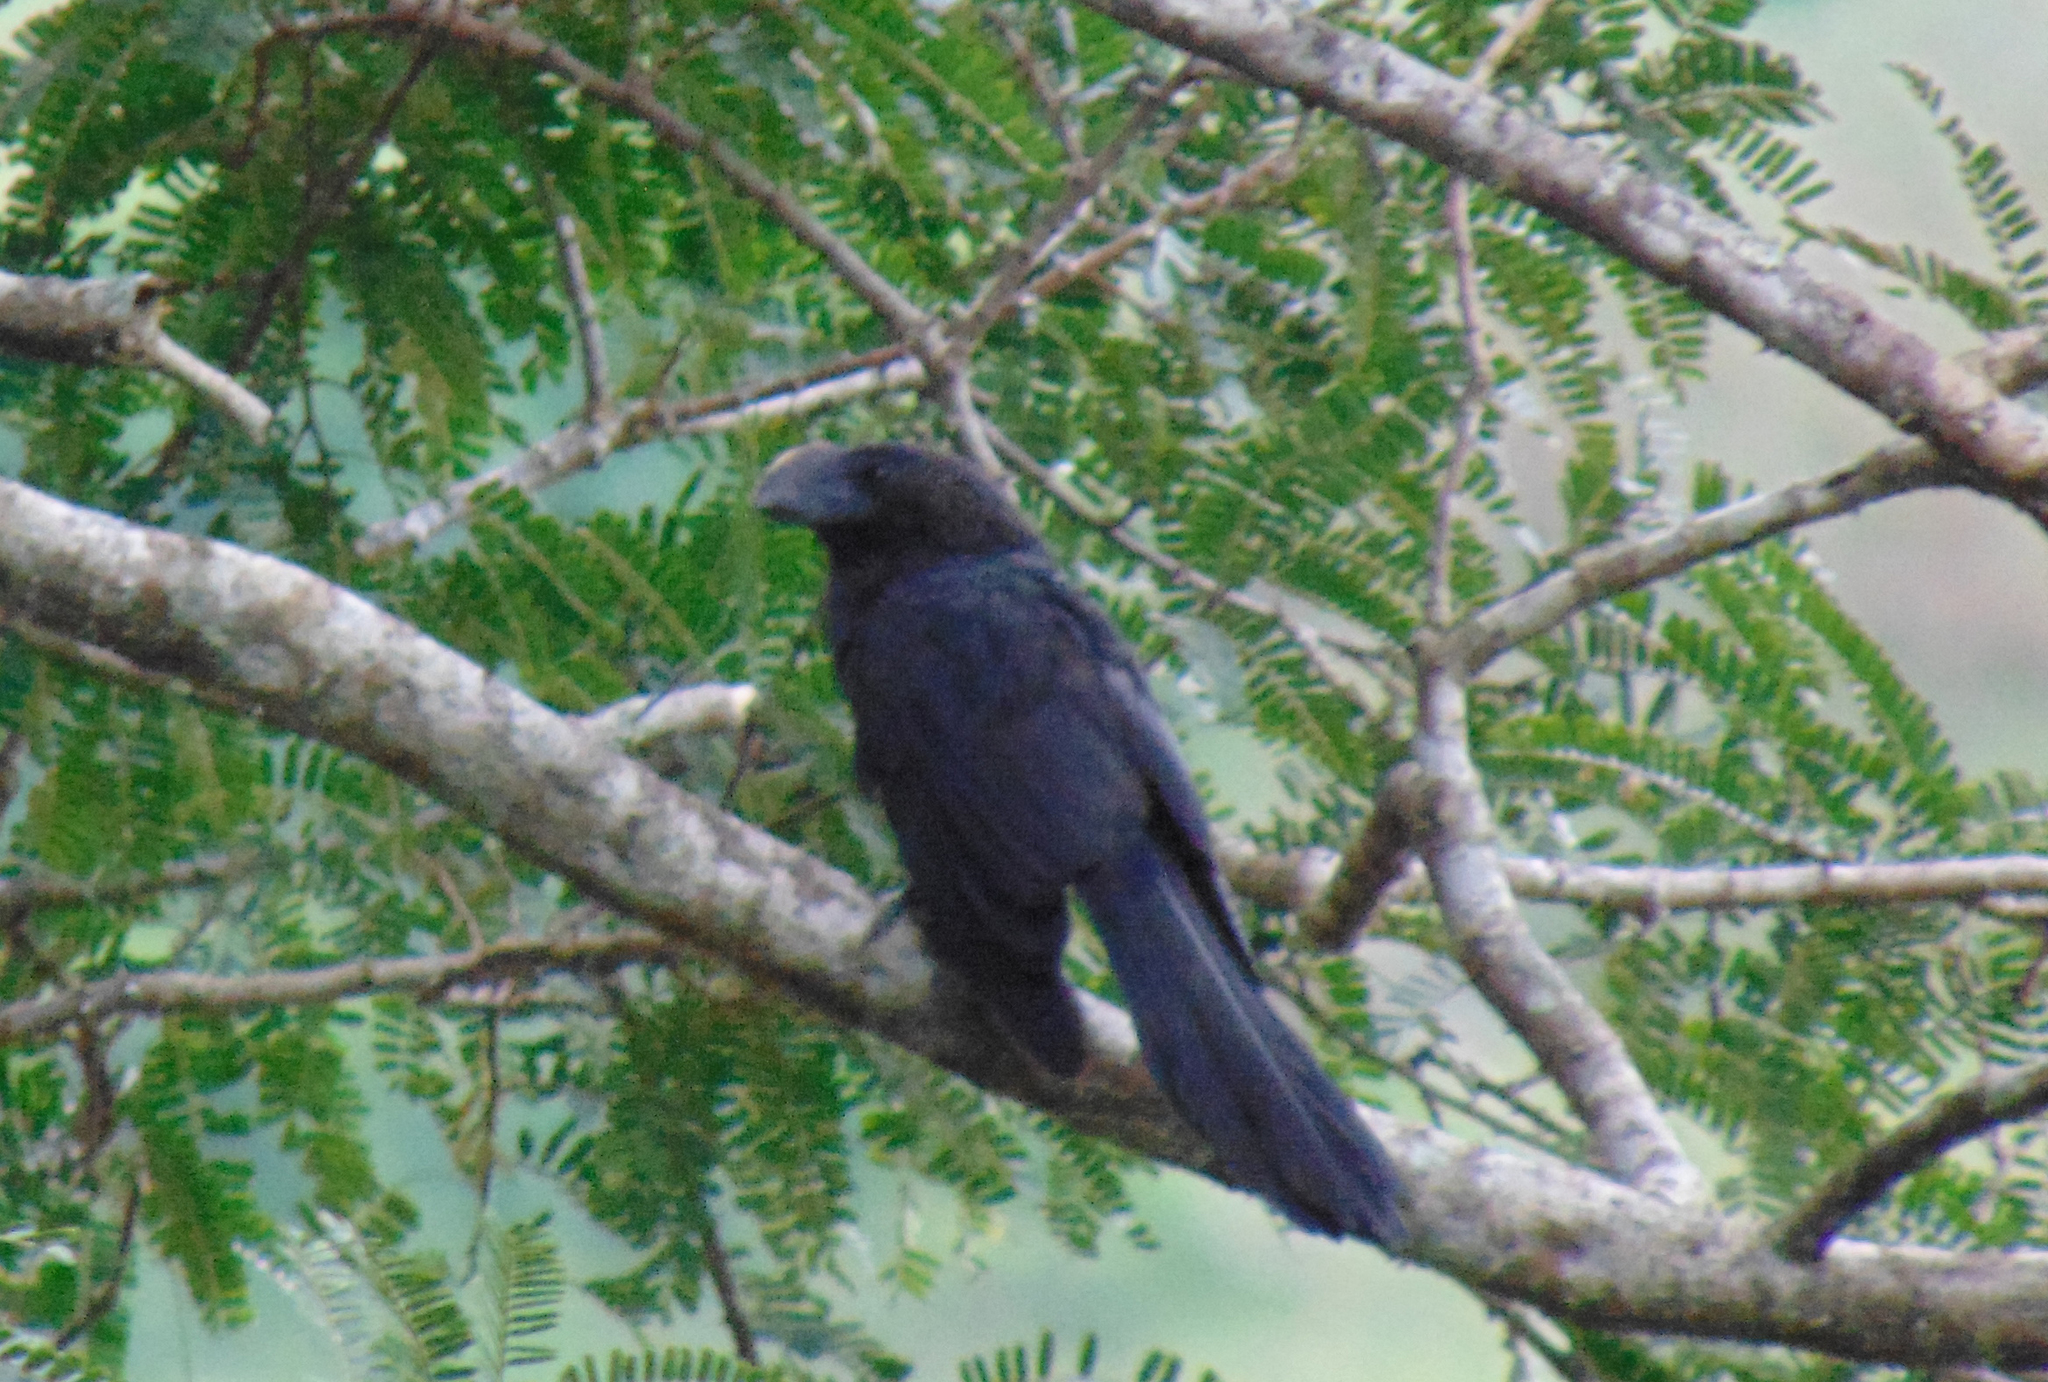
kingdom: Animalia
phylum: Chordata
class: Aves
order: Cuculiformes
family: Cuculidae
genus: Crotophaga
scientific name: Crotophaga ani
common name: Smooth-billed ani
